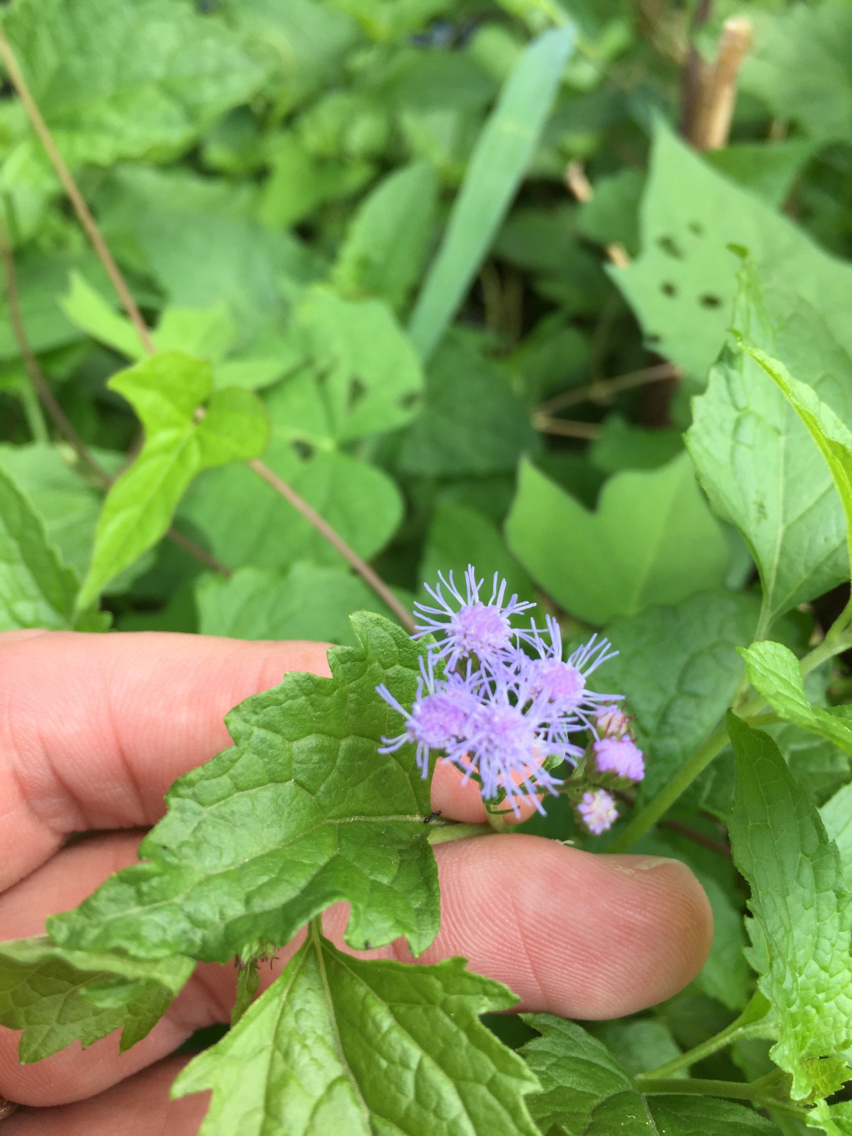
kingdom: Plantae
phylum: Tracheophyta
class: Magnoliopsida
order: Asterales
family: Asteraceae
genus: Conoclinium
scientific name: Conoclinium coelestinum
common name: Blue mistflower
